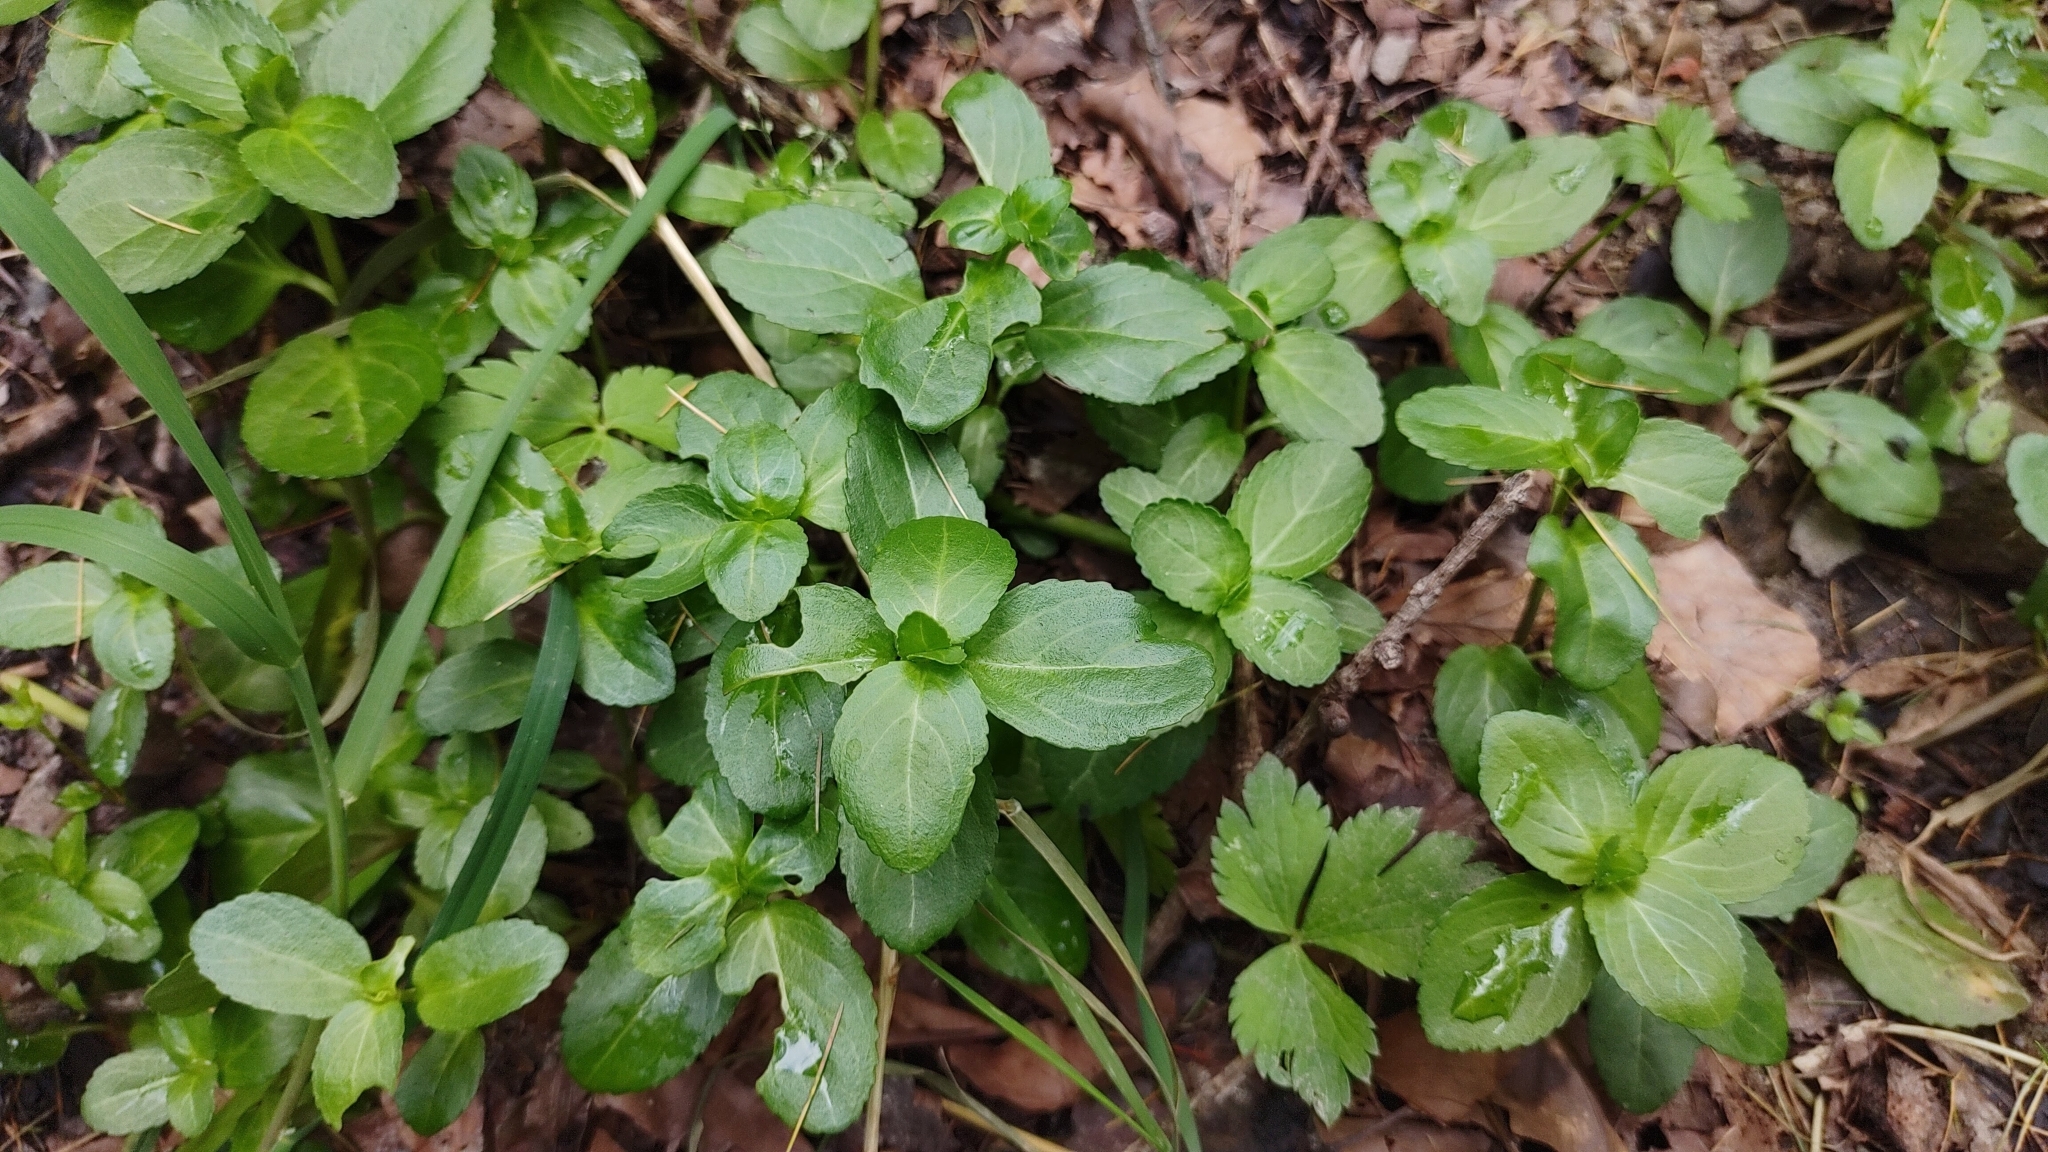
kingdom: Plantae
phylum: Tracheophyta
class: Magnoliopsida
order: Lamiales
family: Plantaginaceae
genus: Veronica
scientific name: Veronica beccabunga
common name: Brooklime
